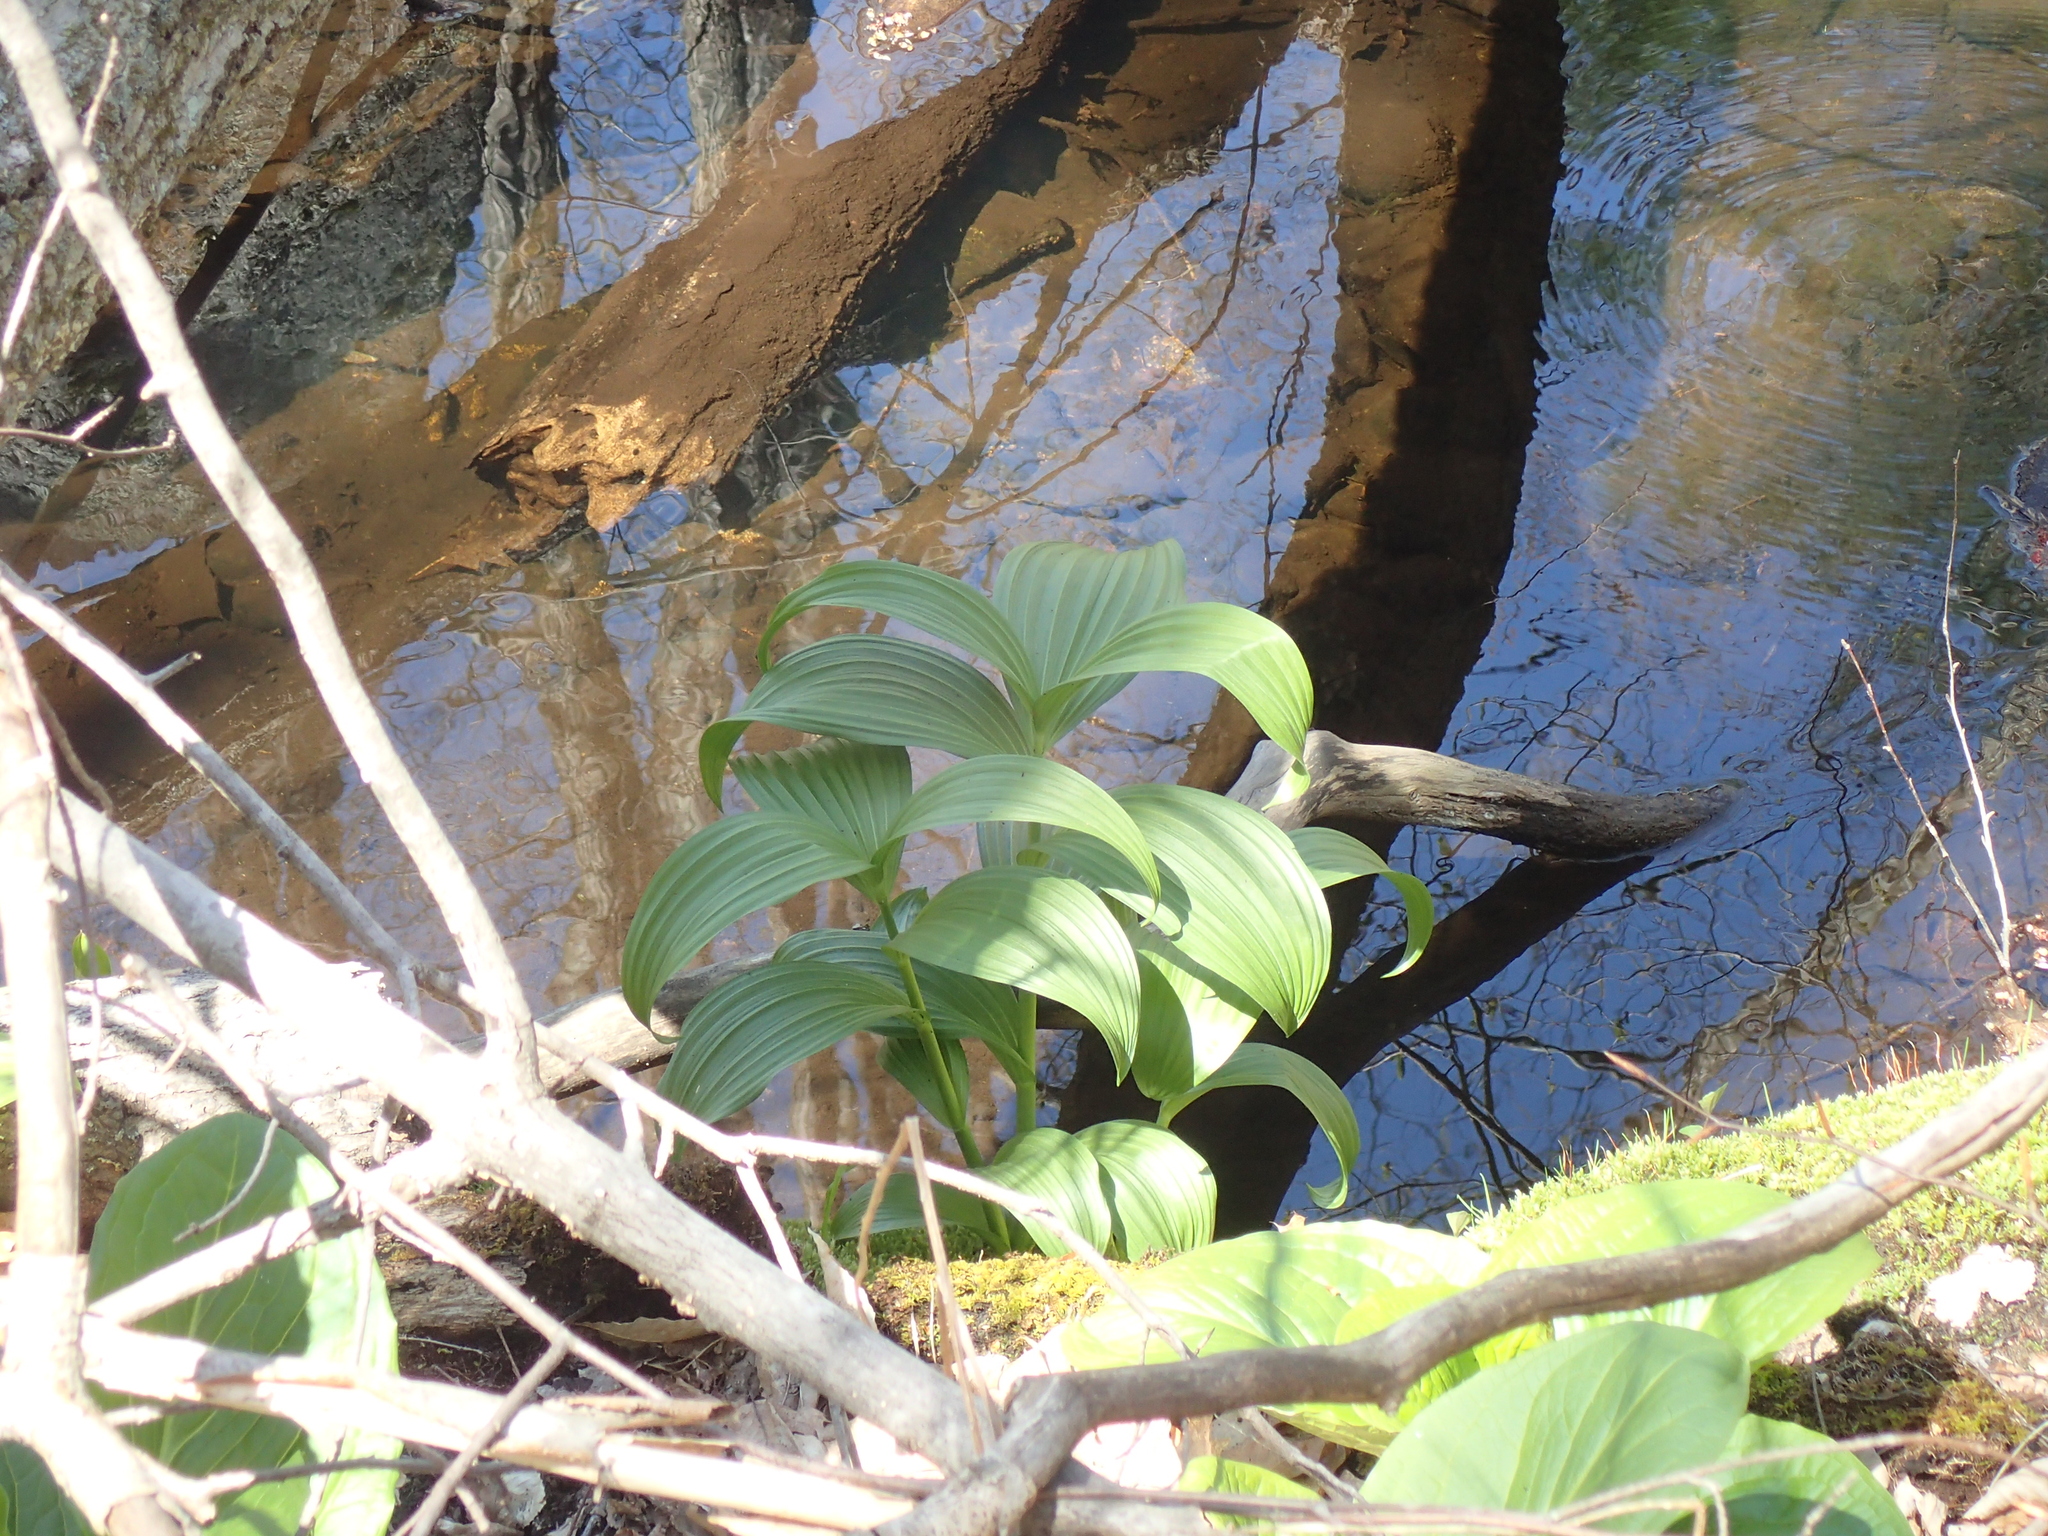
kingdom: Plantae
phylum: Tracheophyta
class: Liliopsida
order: Liliales
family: Melanthiaceae
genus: Veratrum
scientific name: Veratrum viride
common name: American false hellebore
